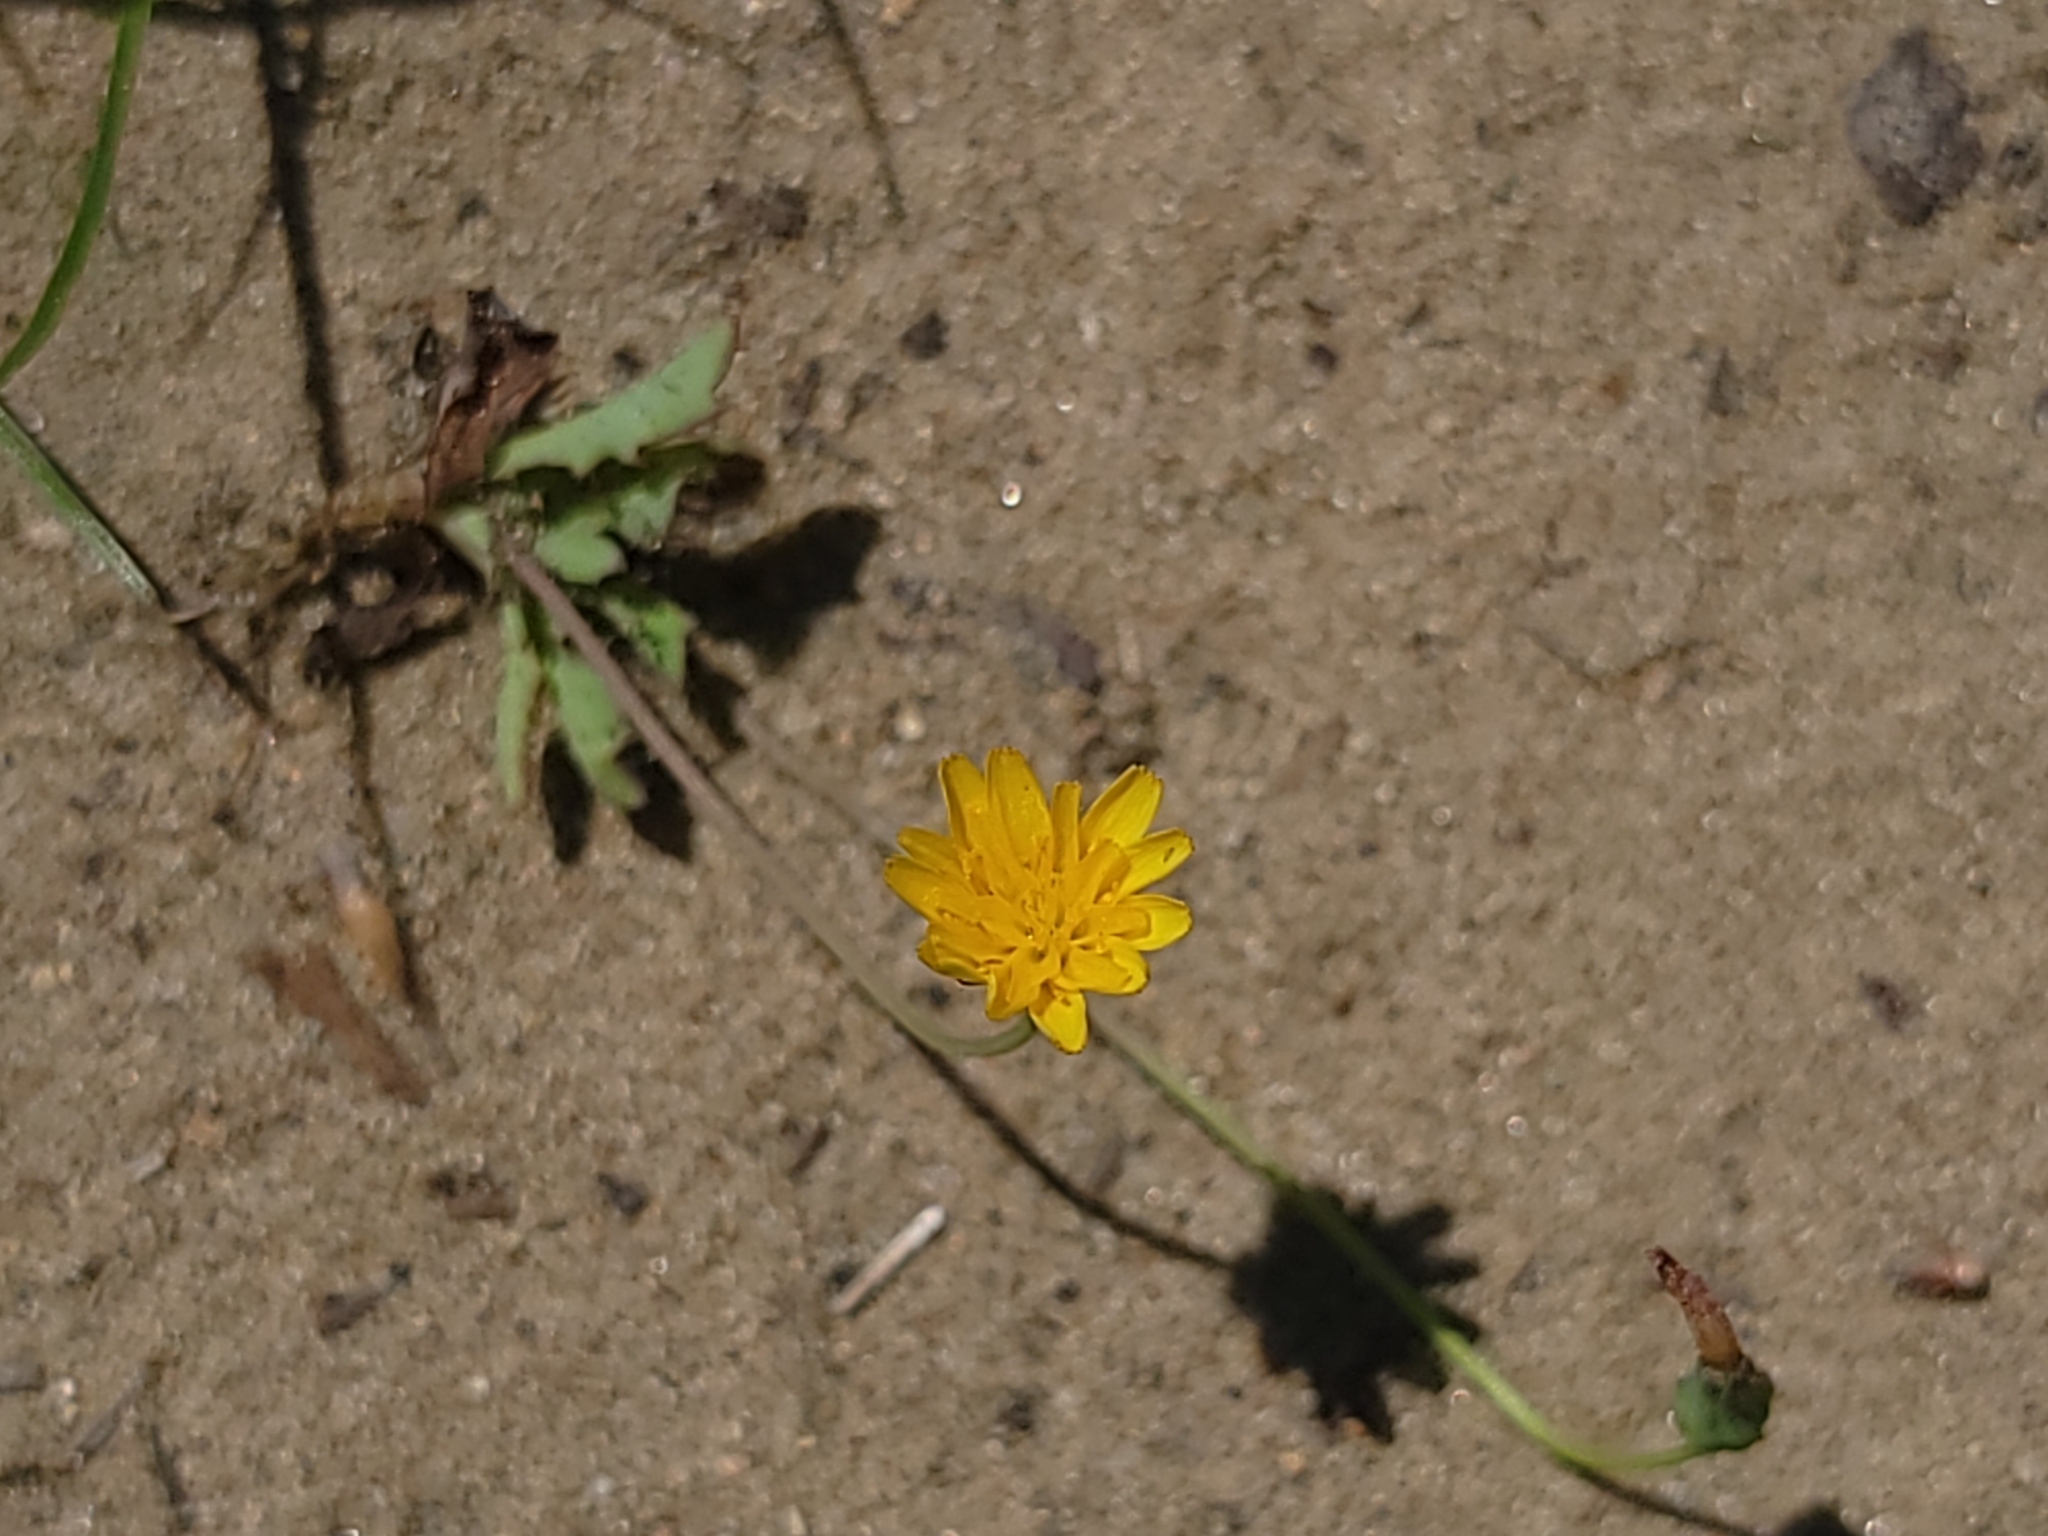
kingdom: Plantae
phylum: Tracheophyta
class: Magnoliopsida
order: Asterales
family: Asteraceae
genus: Krigia
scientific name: Krigia virginica
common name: Virginia dwarf-dandelion
